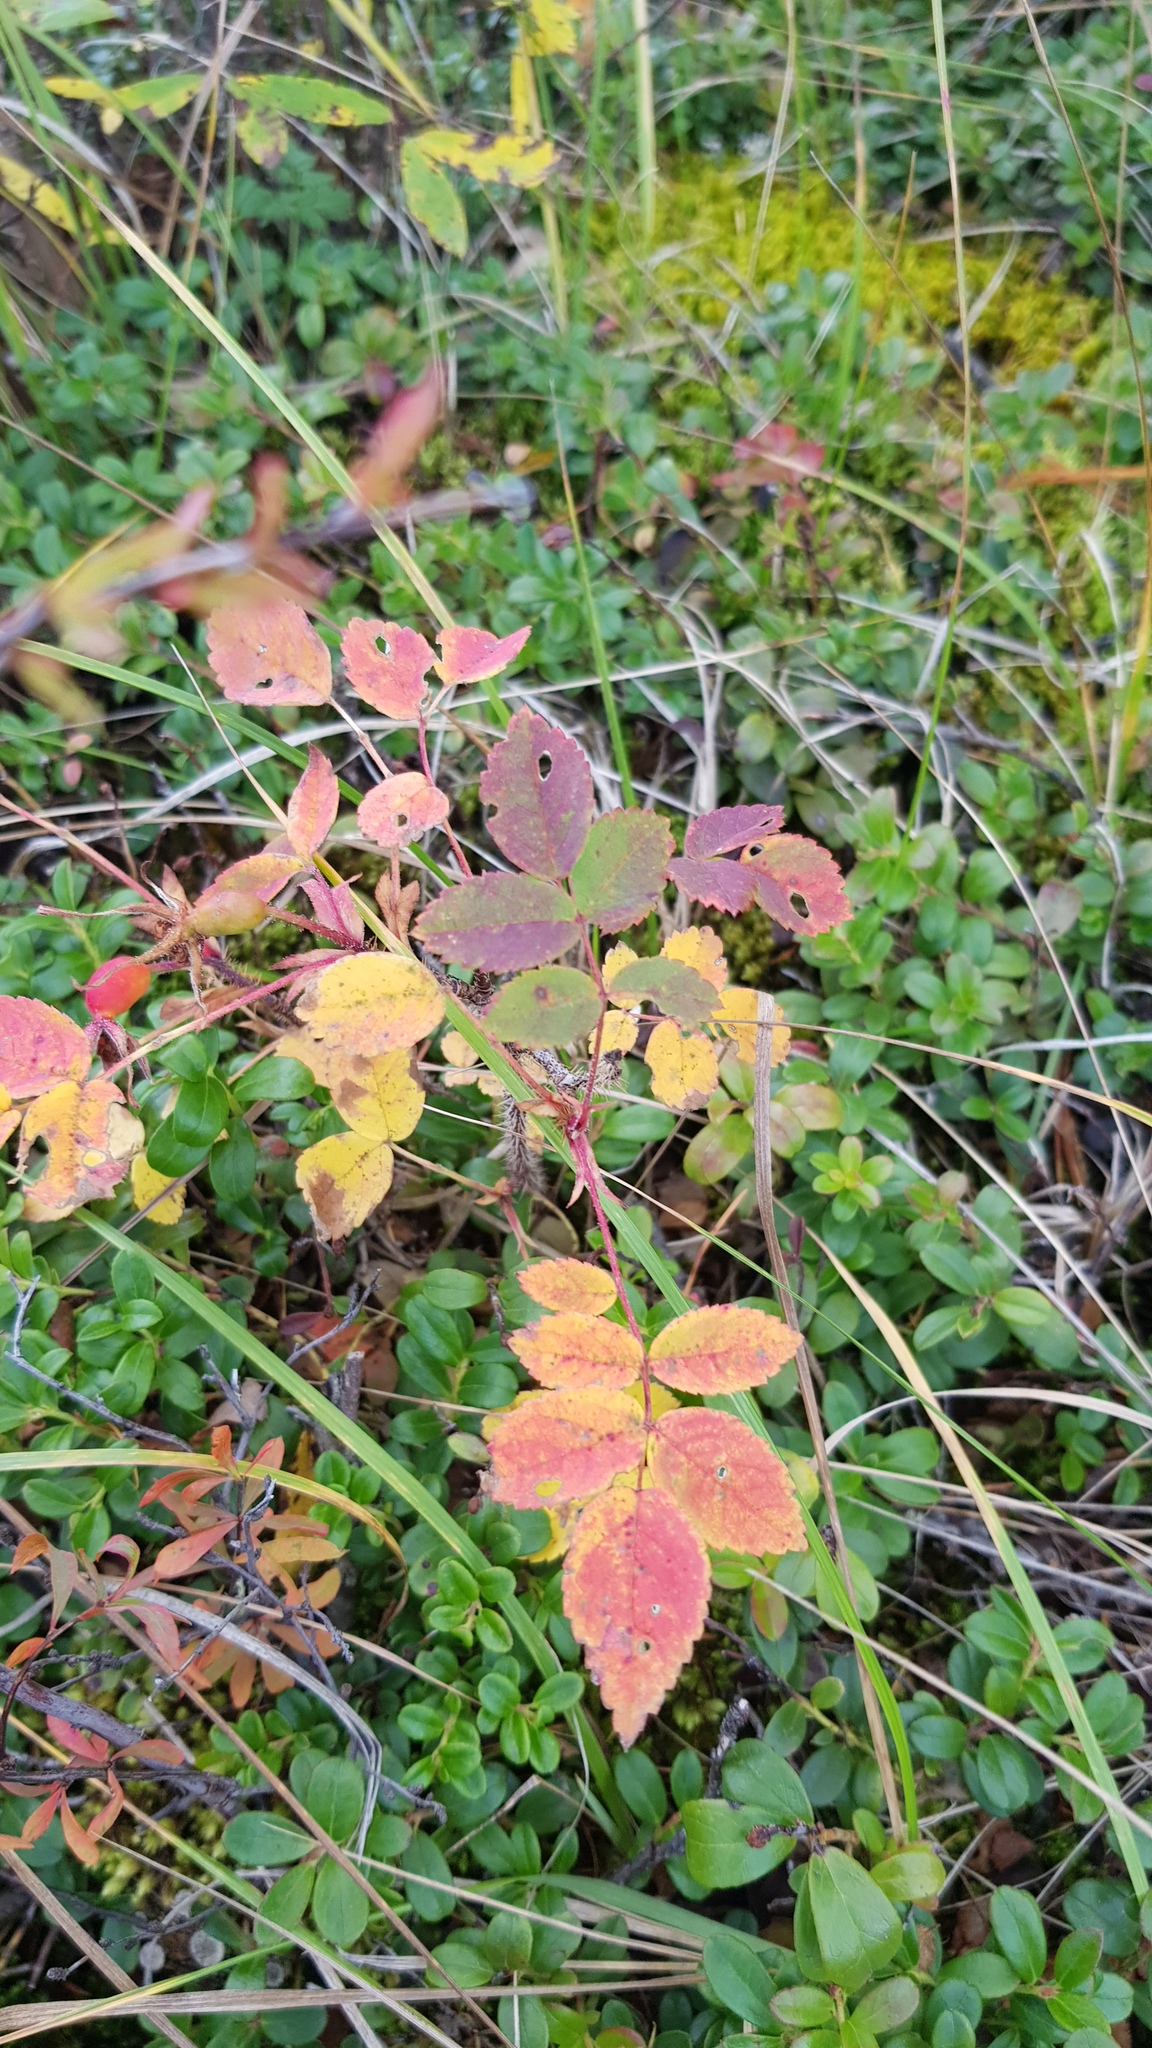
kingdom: Plantae
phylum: Tracheophyta
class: Magnoliopsida
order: Rosales
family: Rosaceae
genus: Rosa
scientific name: Rosa acicularis
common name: Prickly rose
